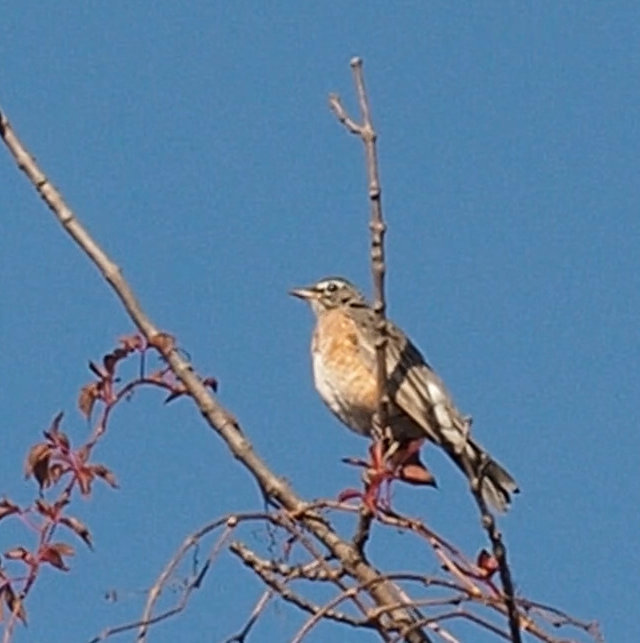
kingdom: Animalia
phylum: Chordata
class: Aves
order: Passeriformes
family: Turdidae
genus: Turdus
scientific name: Turdus migratorius
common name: American robin
